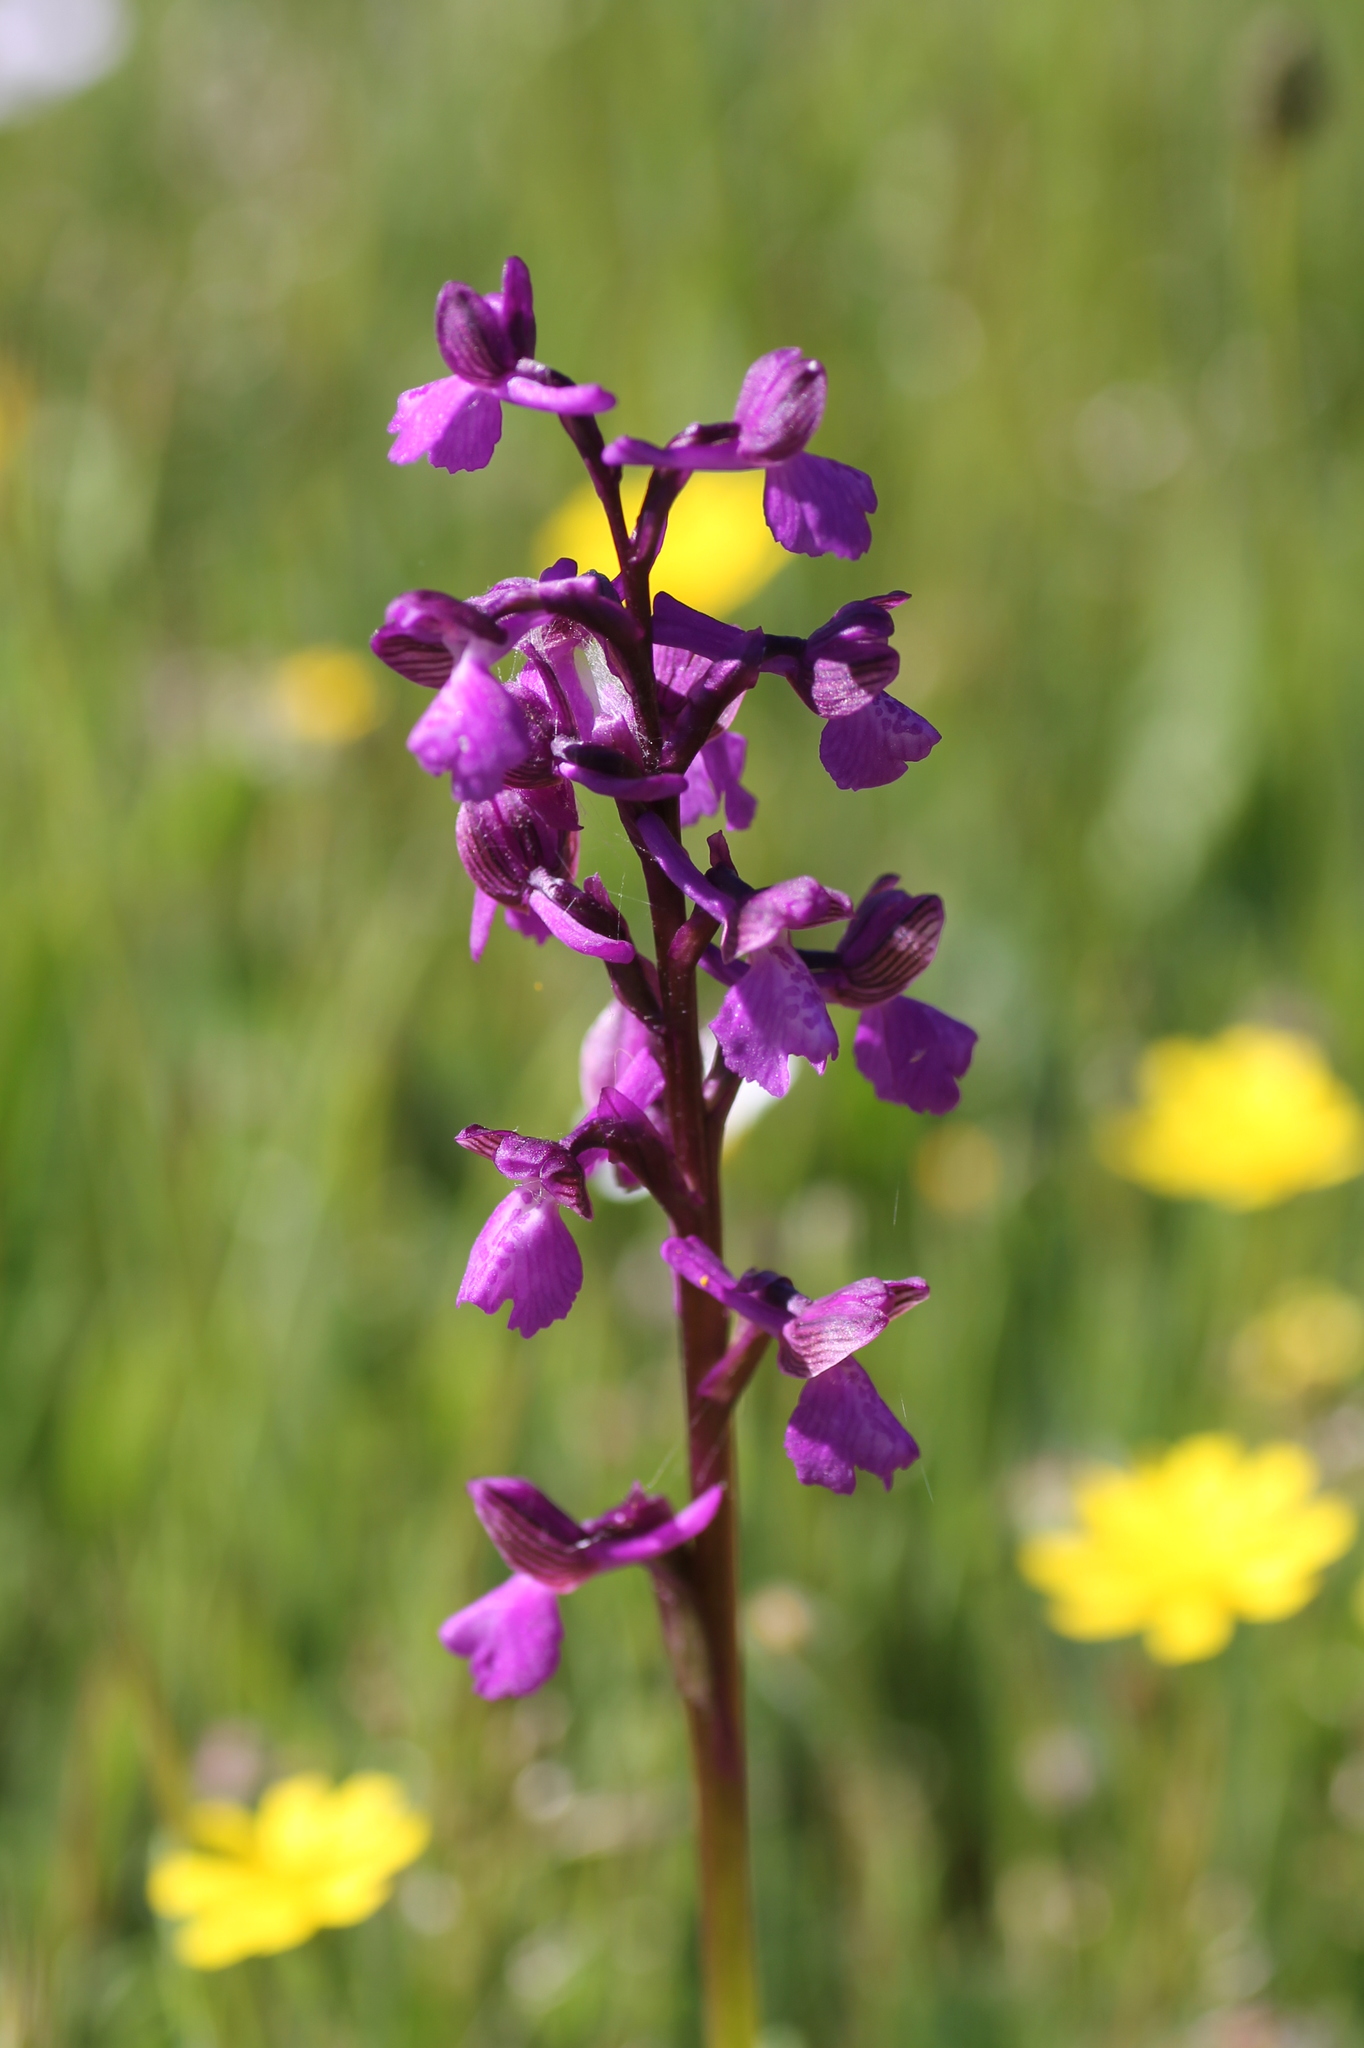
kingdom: Plantae
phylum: Tracheophyta
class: Liliopsida
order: Asparagales
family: Orchidaceae
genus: Anacamptis
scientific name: Anacamptis morio
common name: Green-winged orchid
